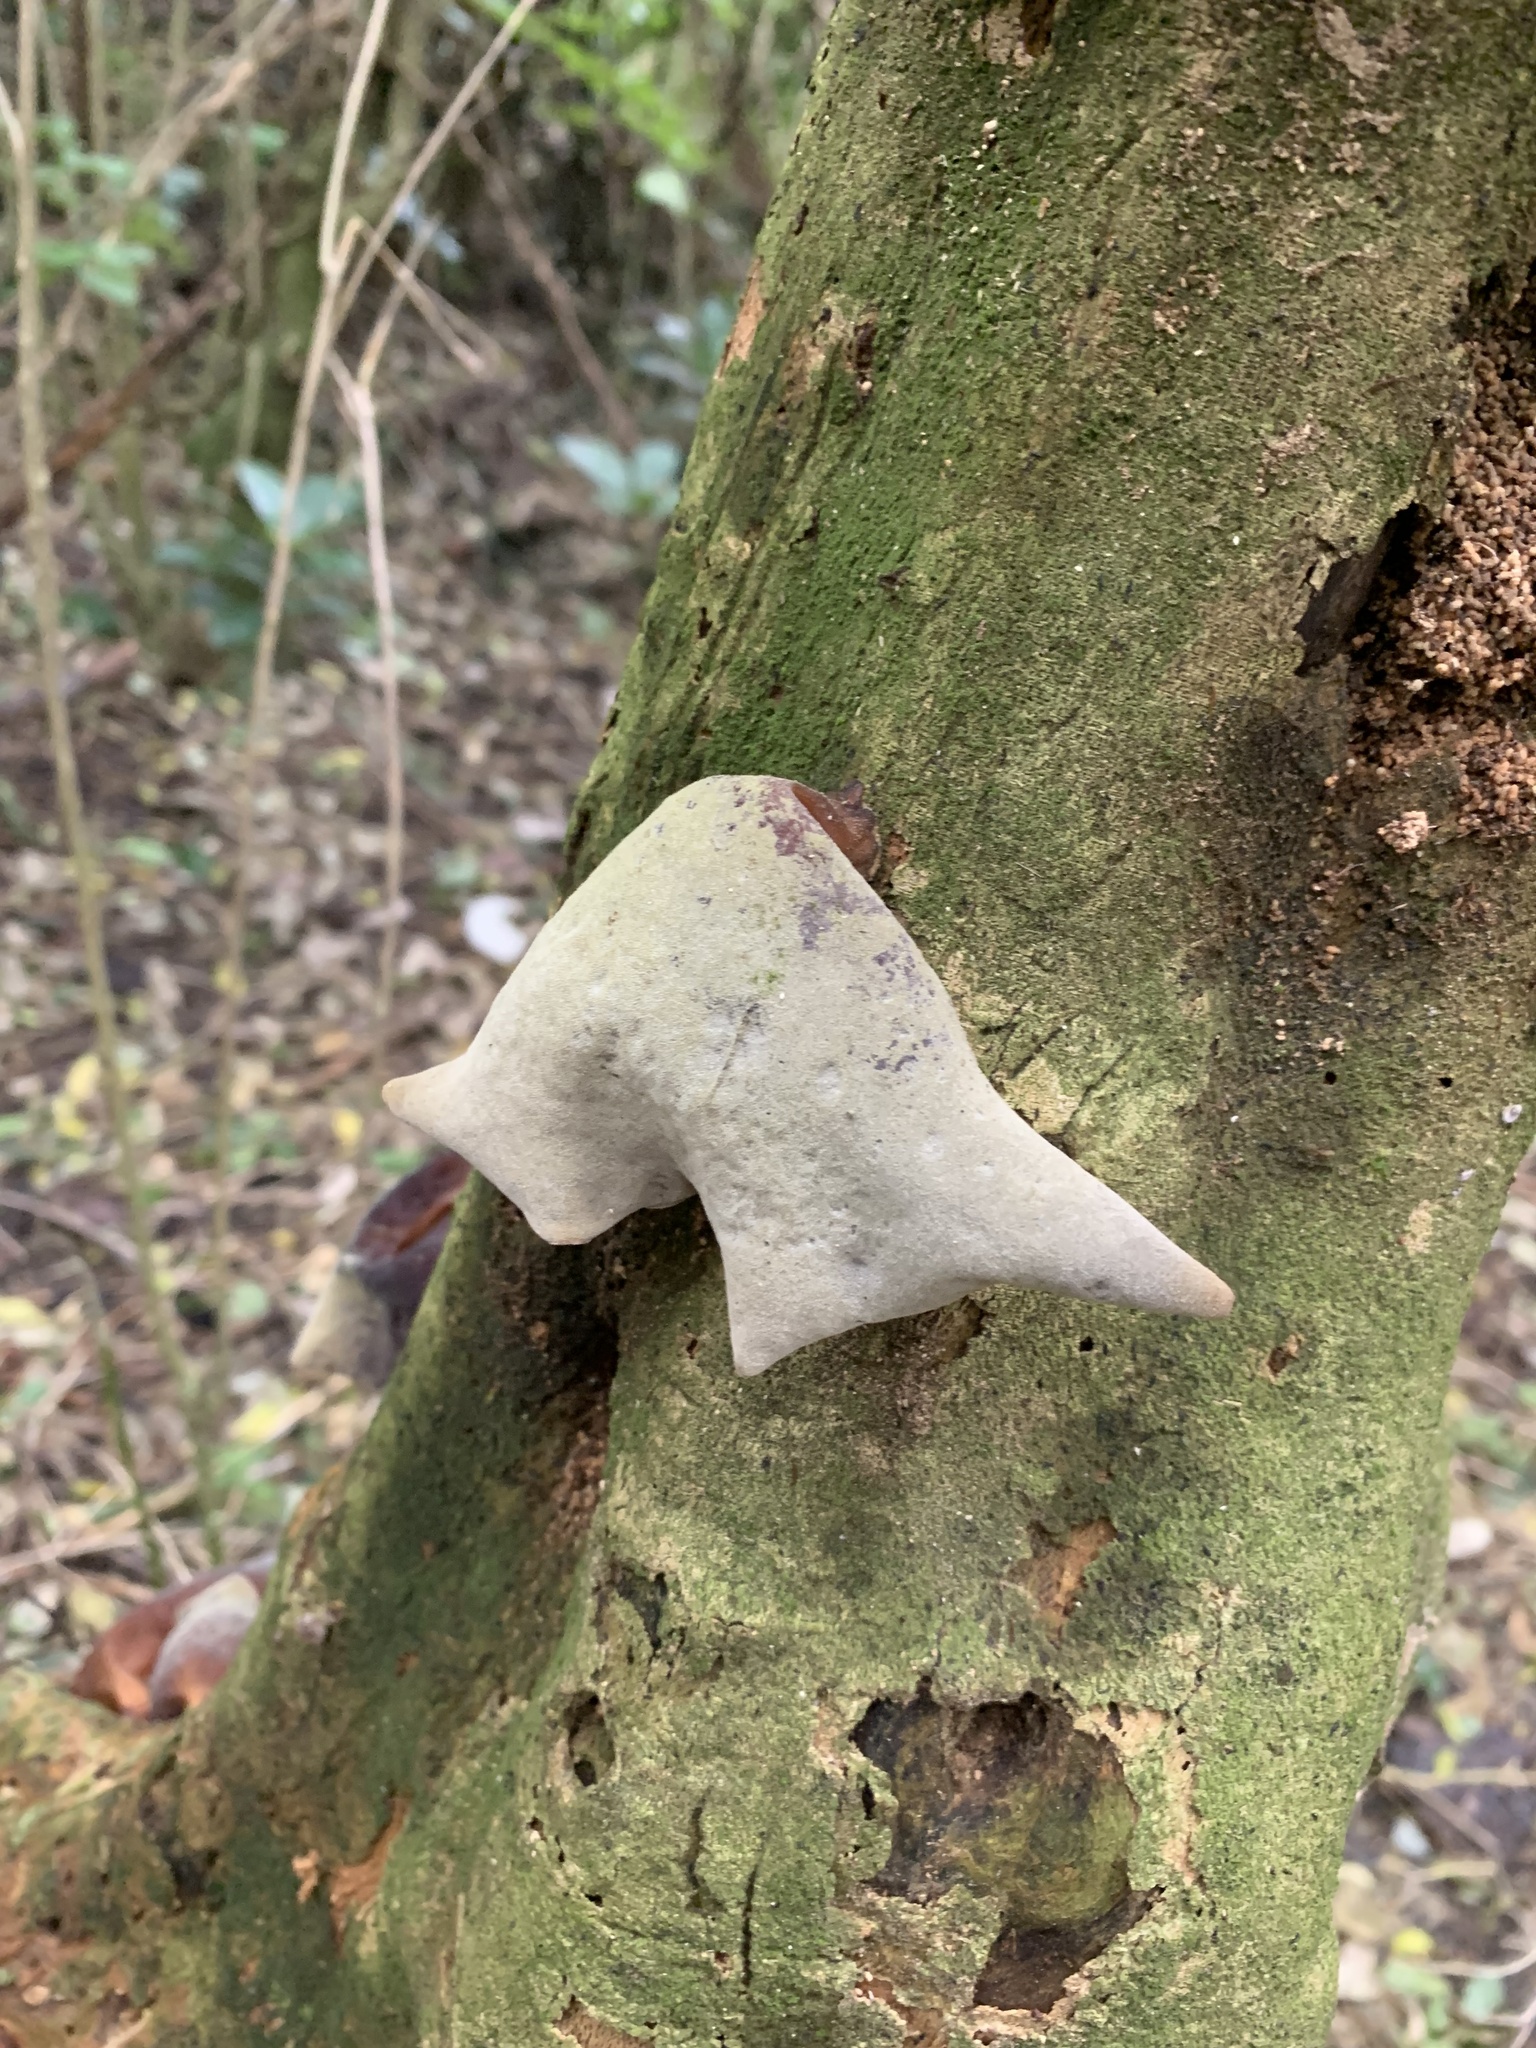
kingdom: Fungi
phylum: Basidiomycota
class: Agaricomycetes
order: Auriculariales
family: Auriculariaceae
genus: Auricularia
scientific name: Auricularia cornea
